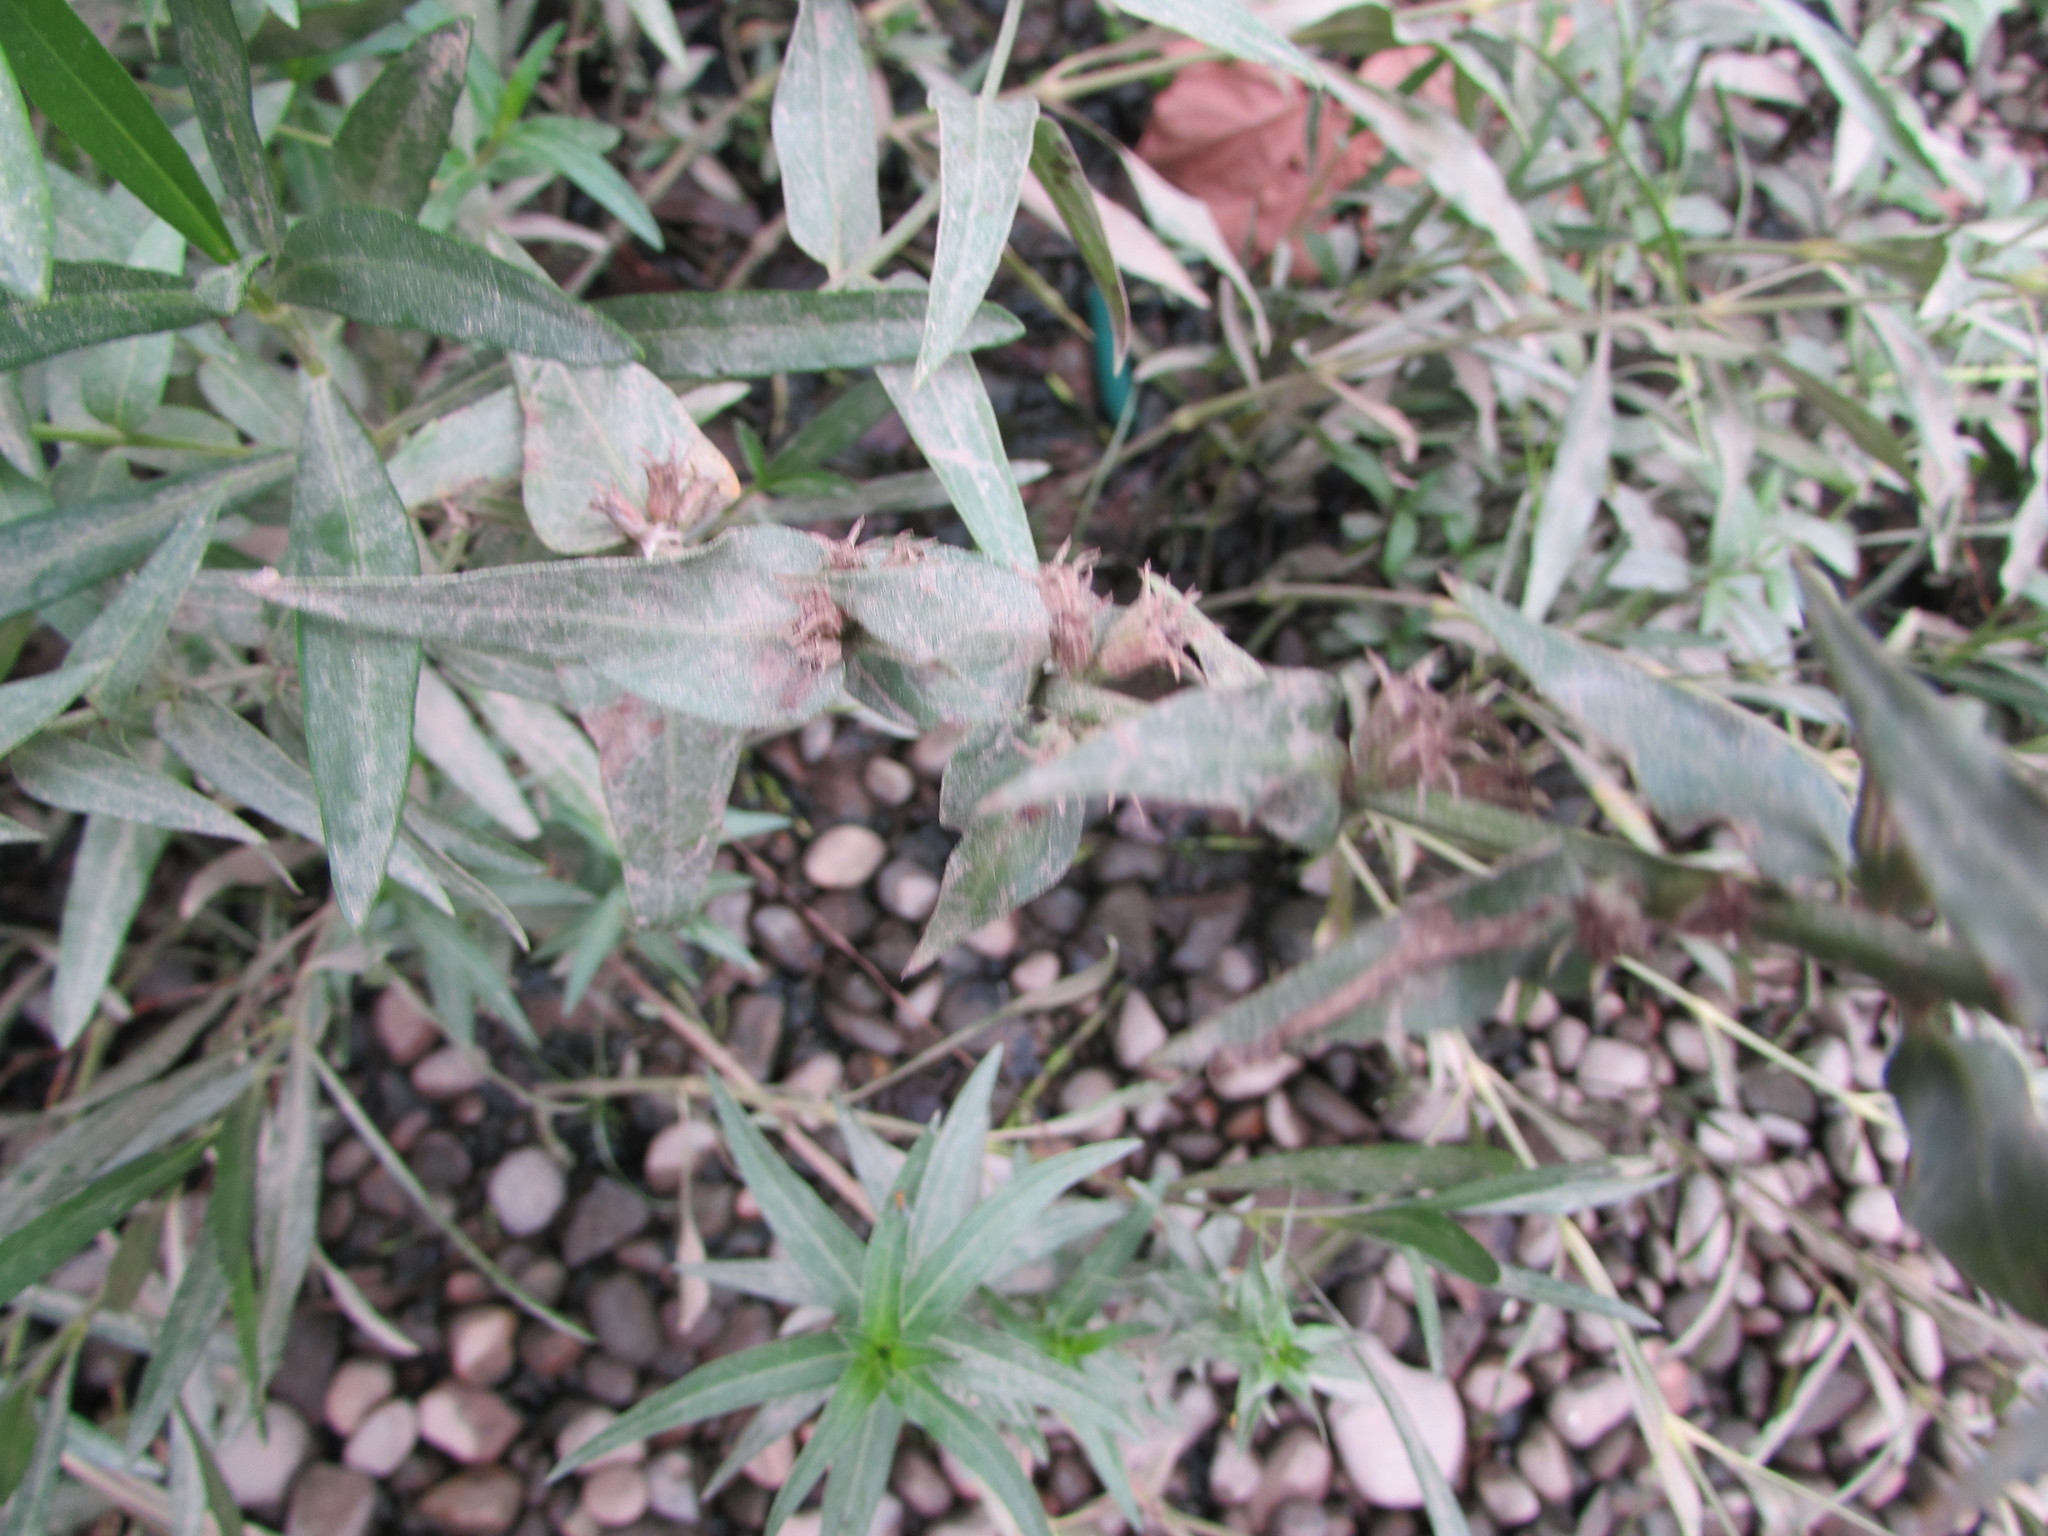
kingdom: Plantae
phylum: Tracheophyta
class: Magnoliopsida
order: Myrtales
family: Lythraceae
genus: Decodon
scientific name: Decodon verticillatus
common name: Hairy swamp loosestrife
